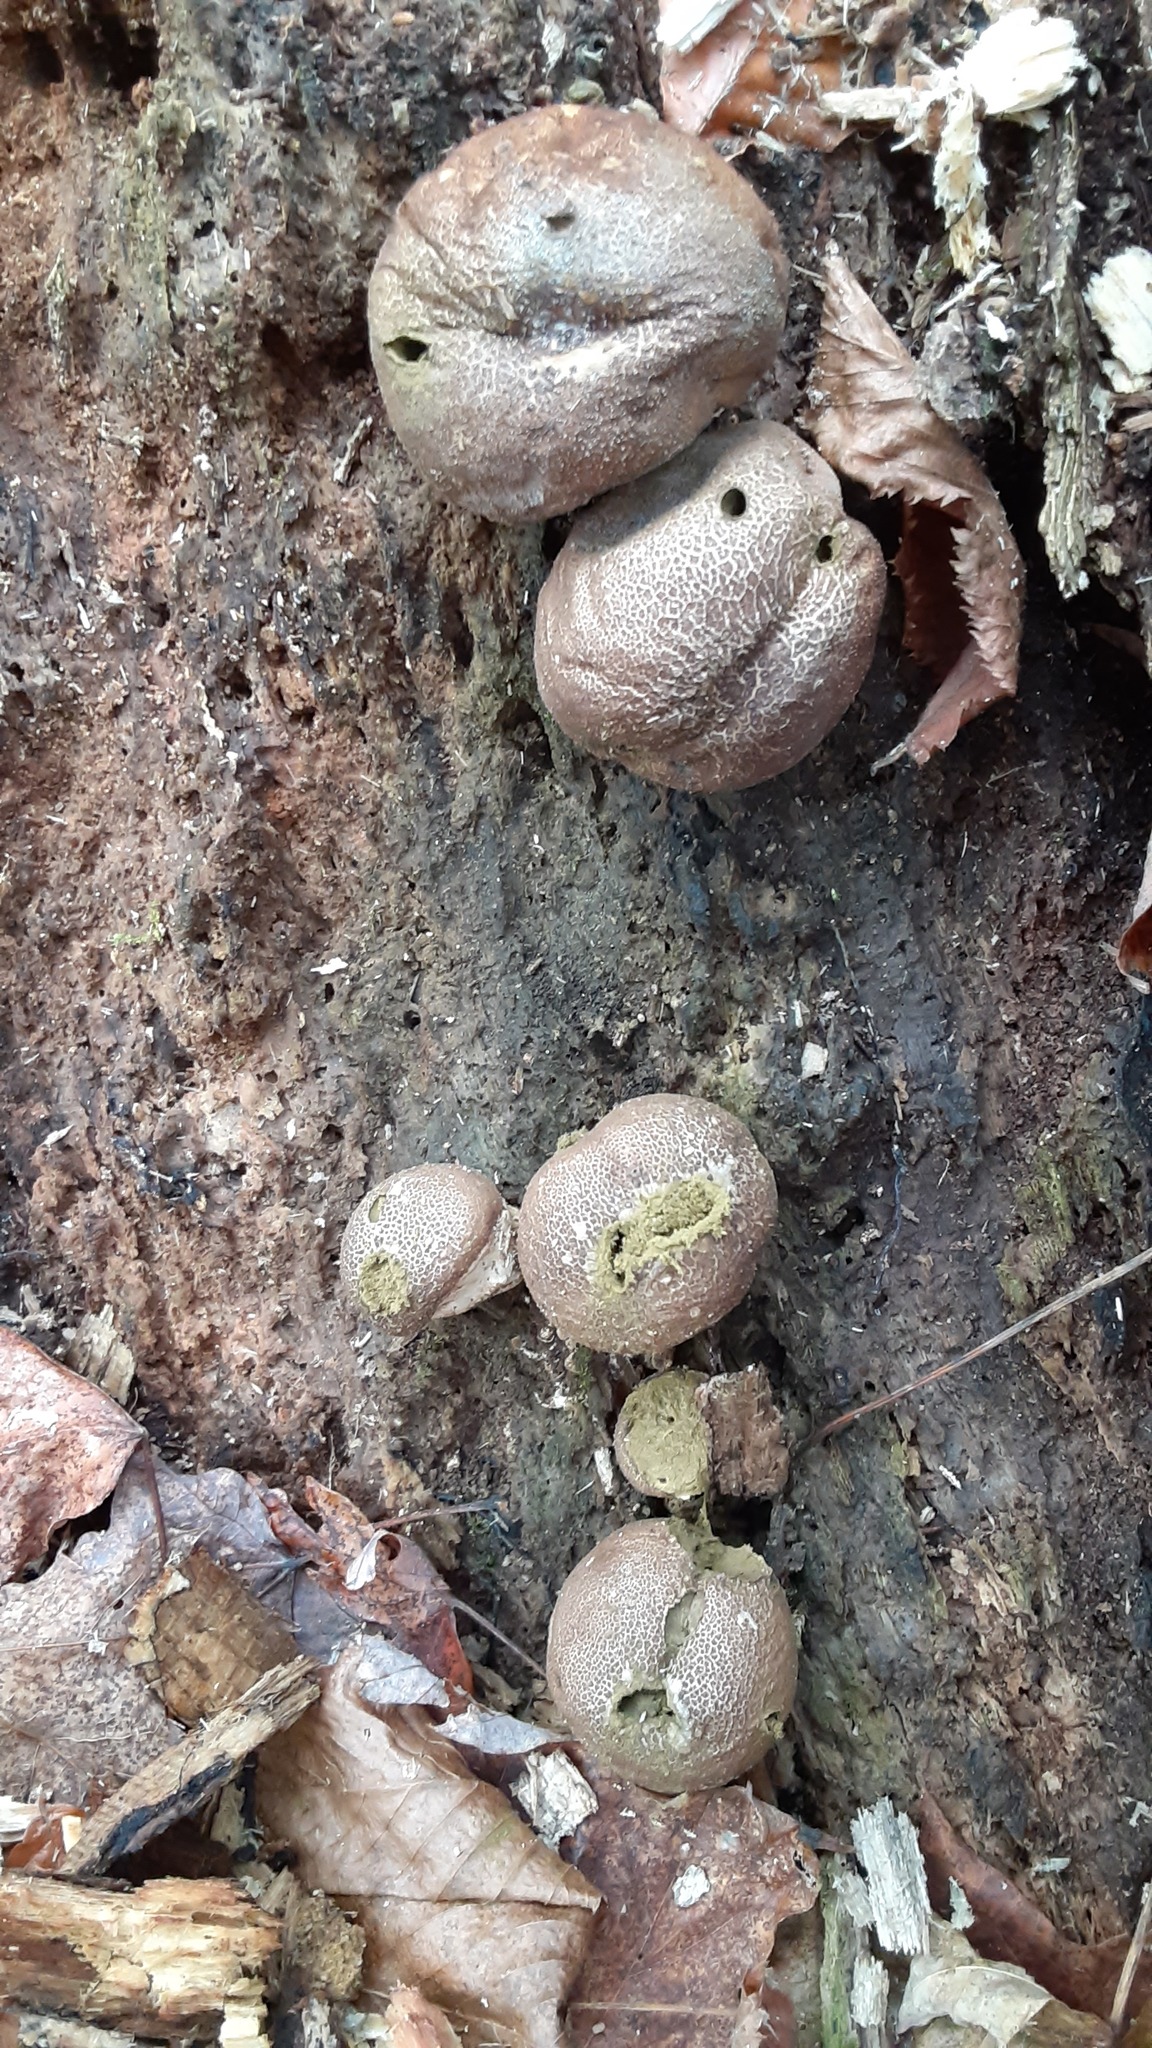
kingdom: Fungi
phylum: Basidiomycota
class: Agaricomycetes
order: Agaricales
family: Lycoperdaceae
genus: Apioperdon
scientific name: Apioperdon pyriforme
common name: Pear-shaped puffball
